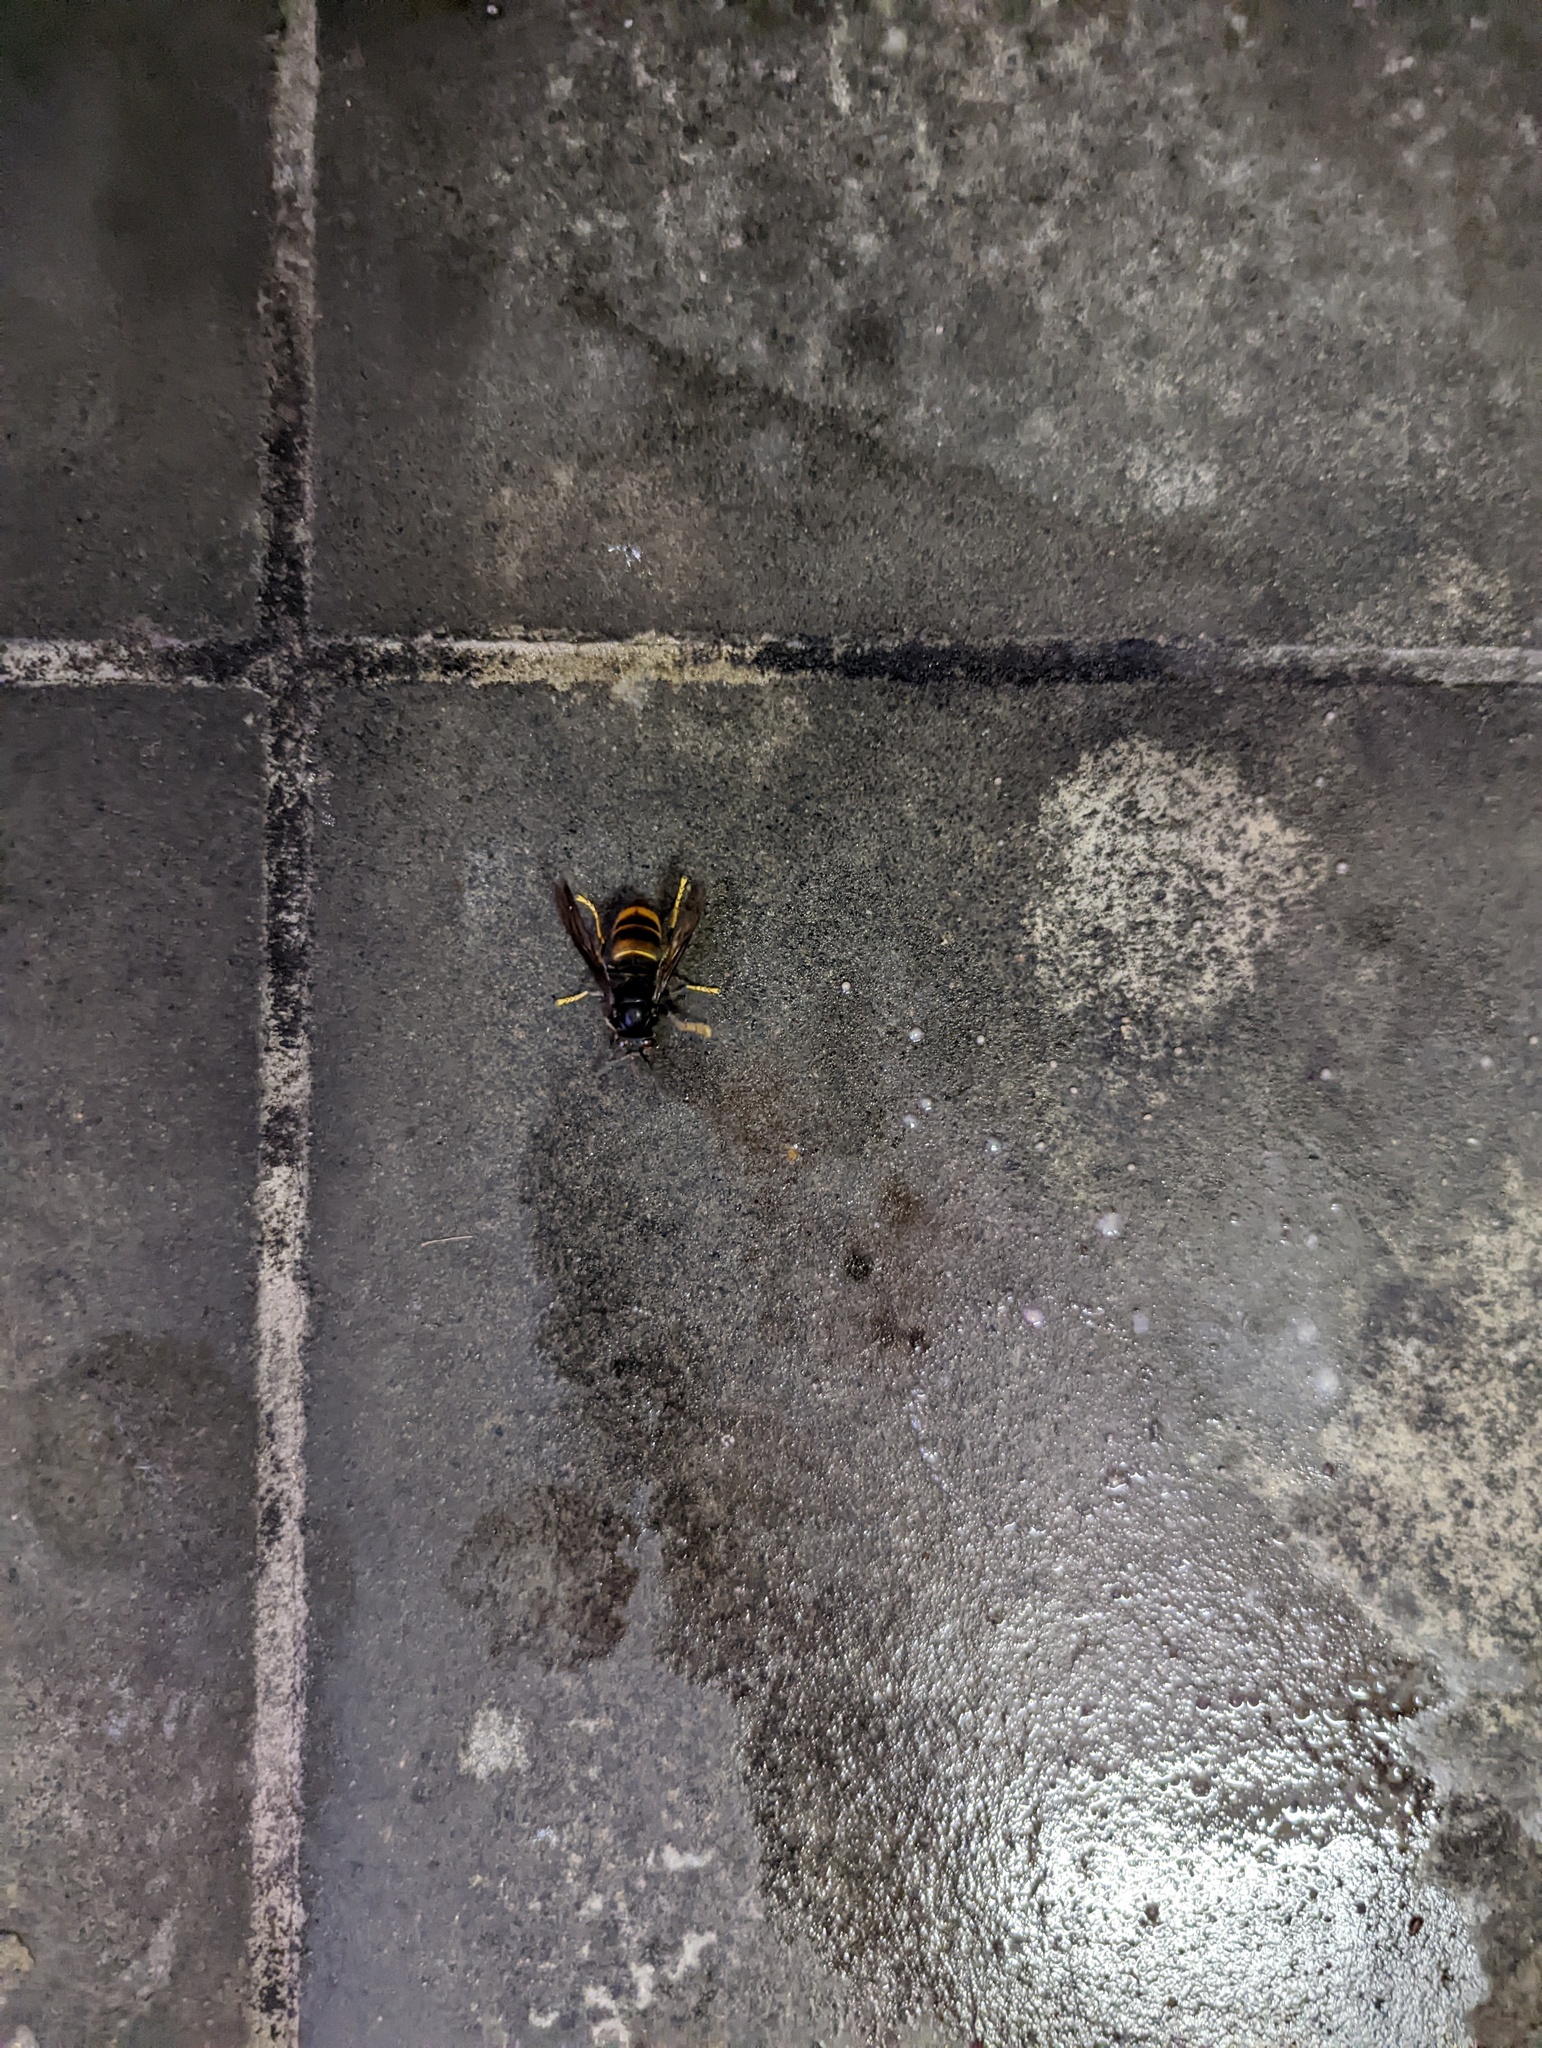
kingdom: Animalia
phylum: Arthropoda
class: Insecta
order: Hymenoptera
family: Vespidae
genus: Vespa
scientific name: Vespa velutina
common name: Asian hornet
